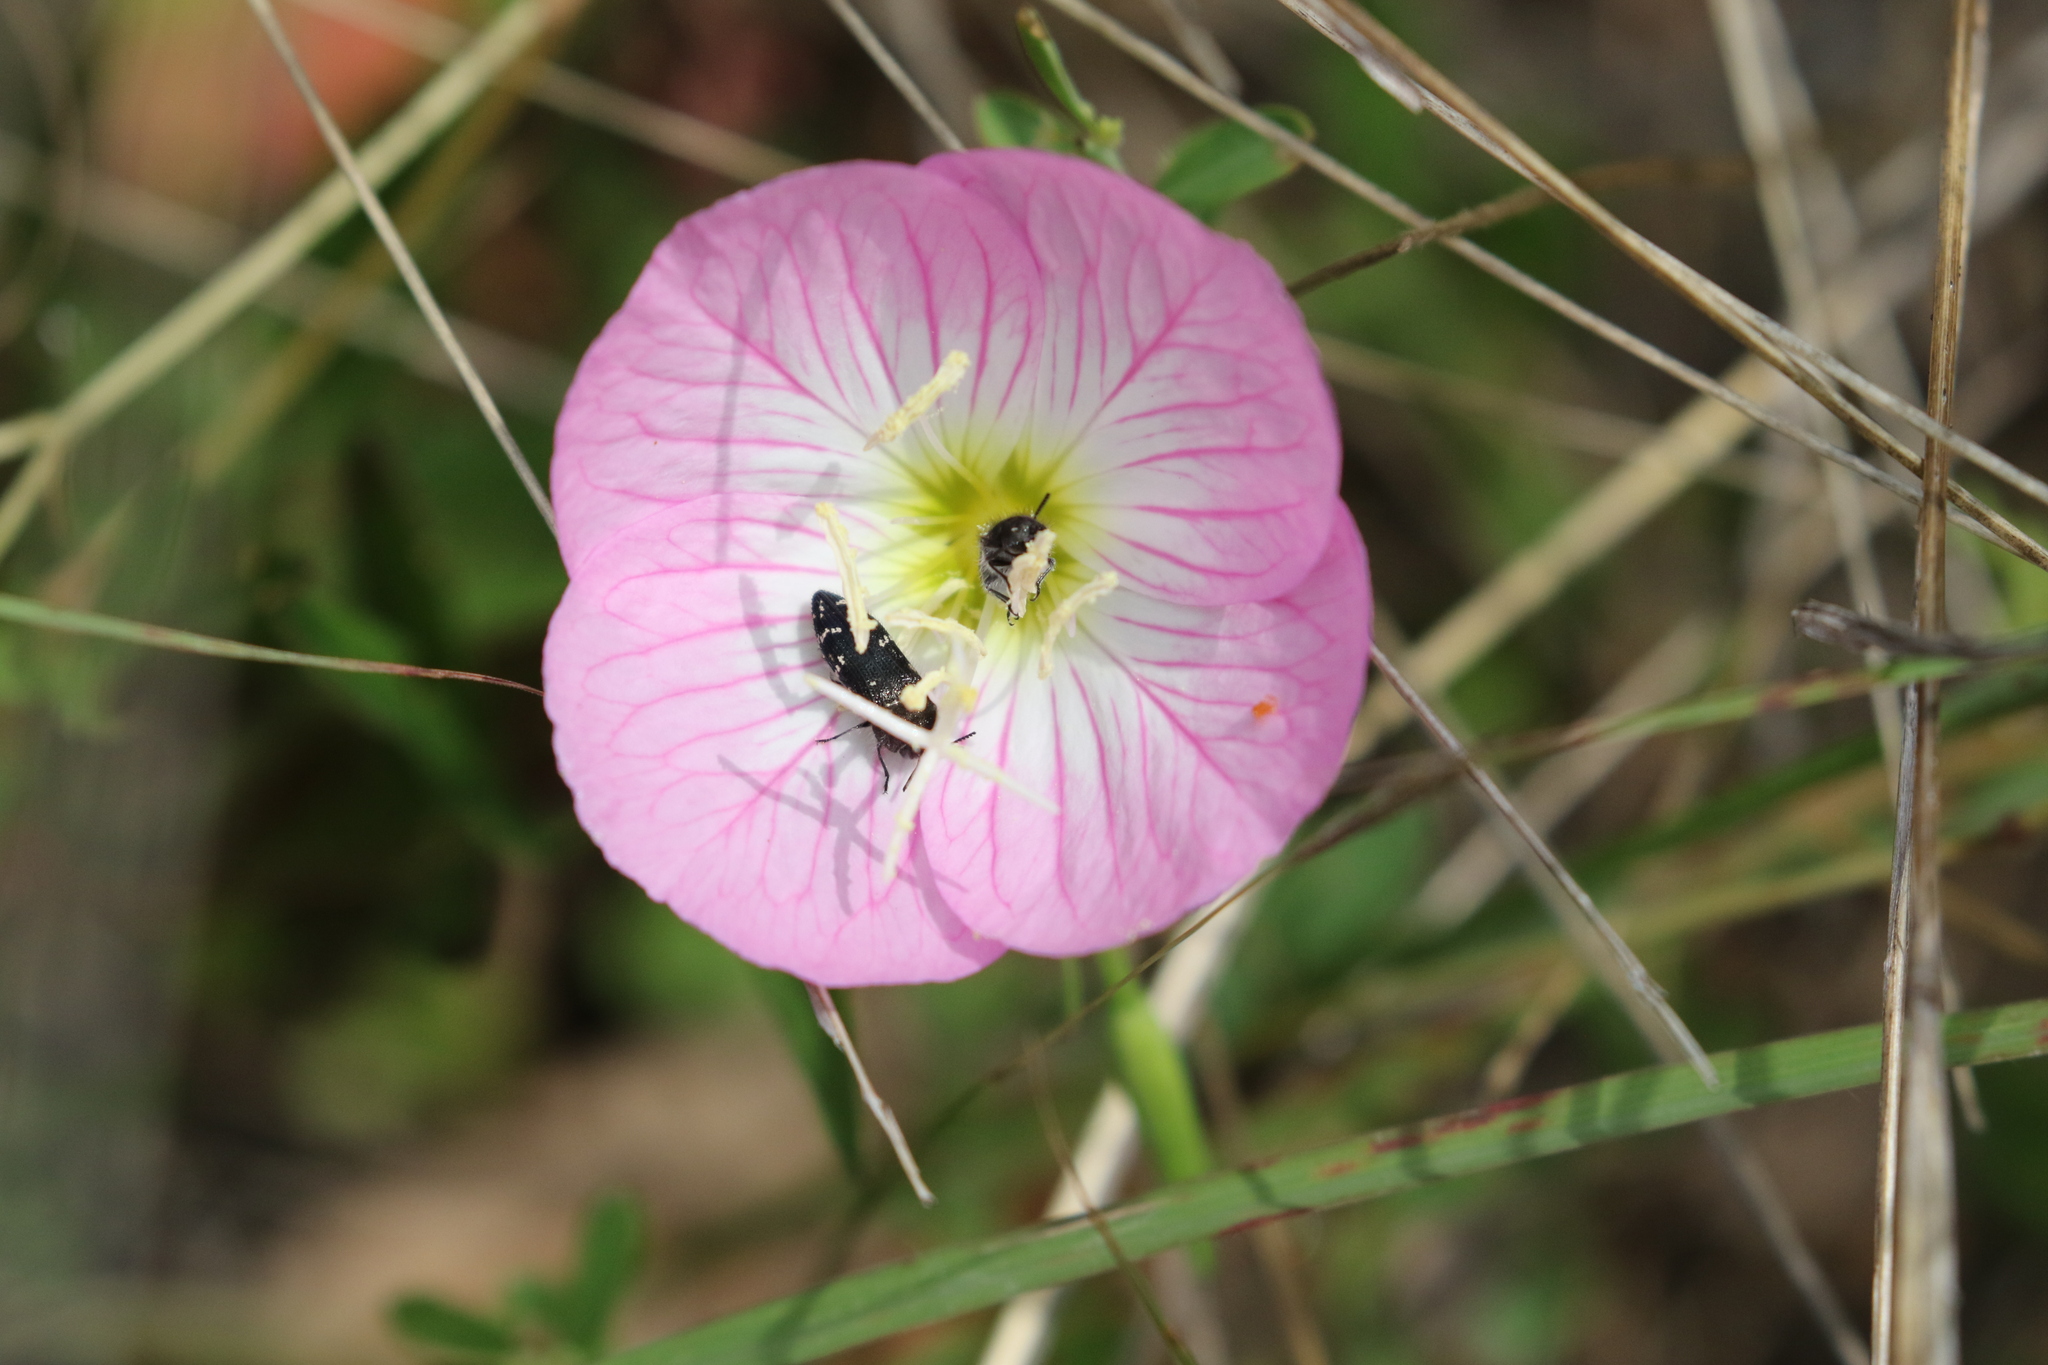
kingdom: Plantae
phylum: Tracheophyta
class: Magnoliopsida
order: Myrtales
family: Onagraceae
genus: Oenothera
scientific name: Oenothera speciosa
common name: White evening-primrose
